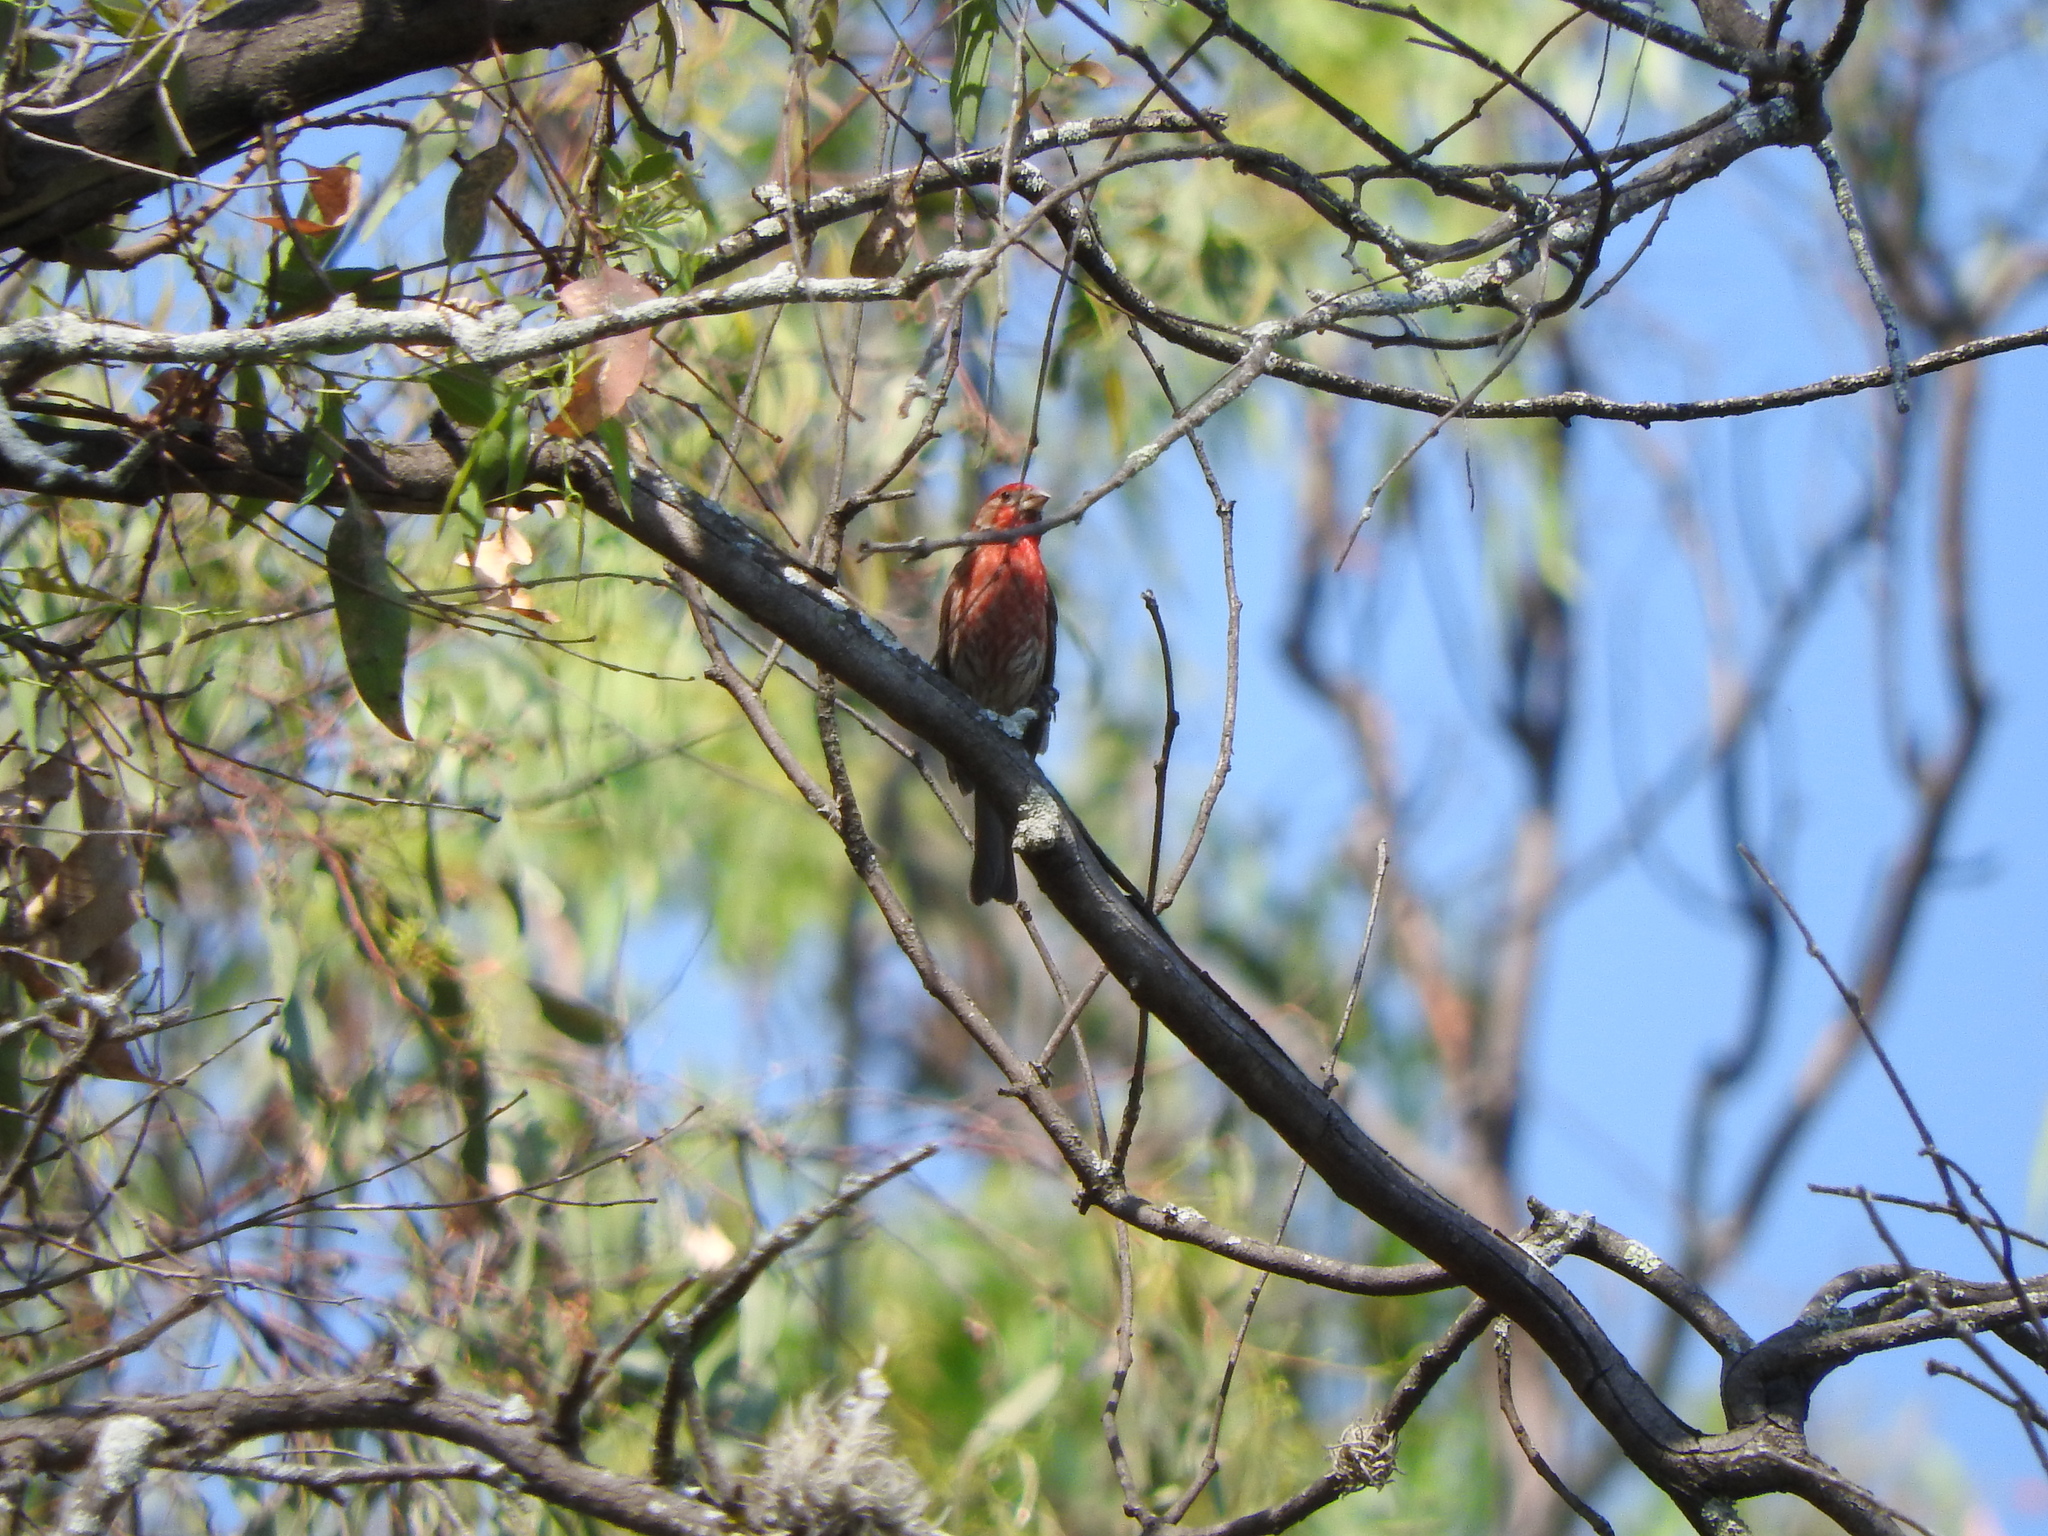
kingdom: Animalia
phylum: Chordata
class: Aves
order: Passeriformes
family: Fringillidae
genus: Haemorhous
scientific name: Haemorhous mexicanus
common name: House finch
